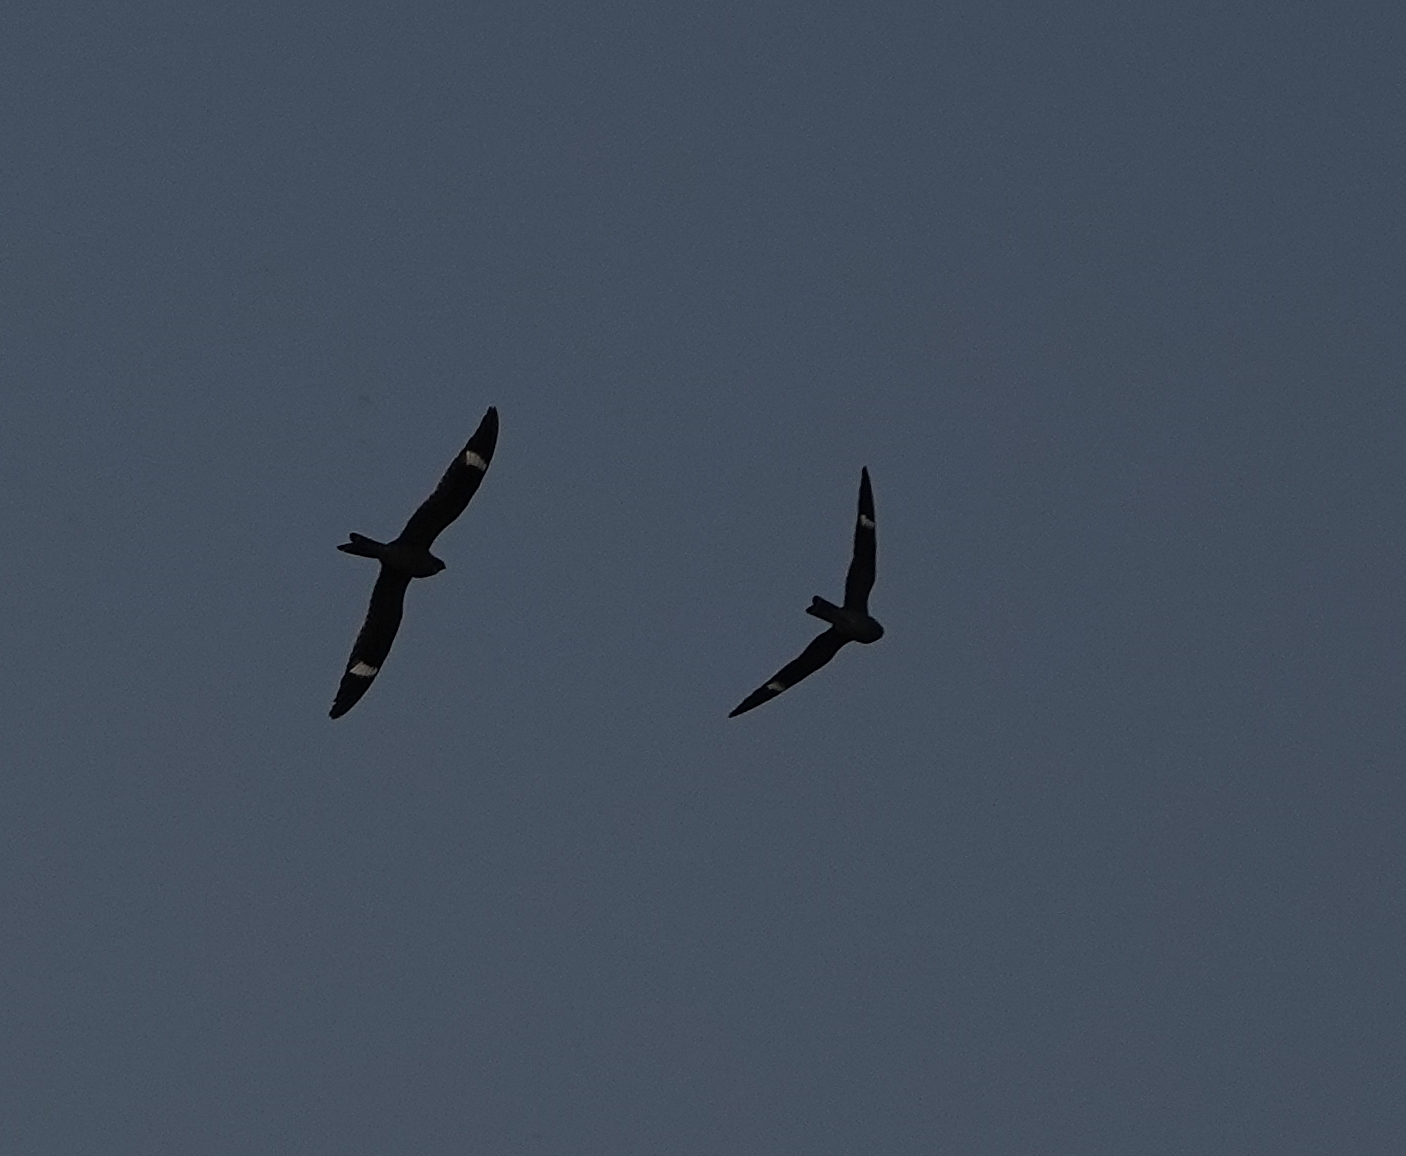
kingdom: Animalia
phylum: Chordata
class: Aves
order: Caprimulgiformes
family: Caprimulgidae
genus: Chordeiles
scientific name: Chordeiles minor
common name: Common nighthawk
